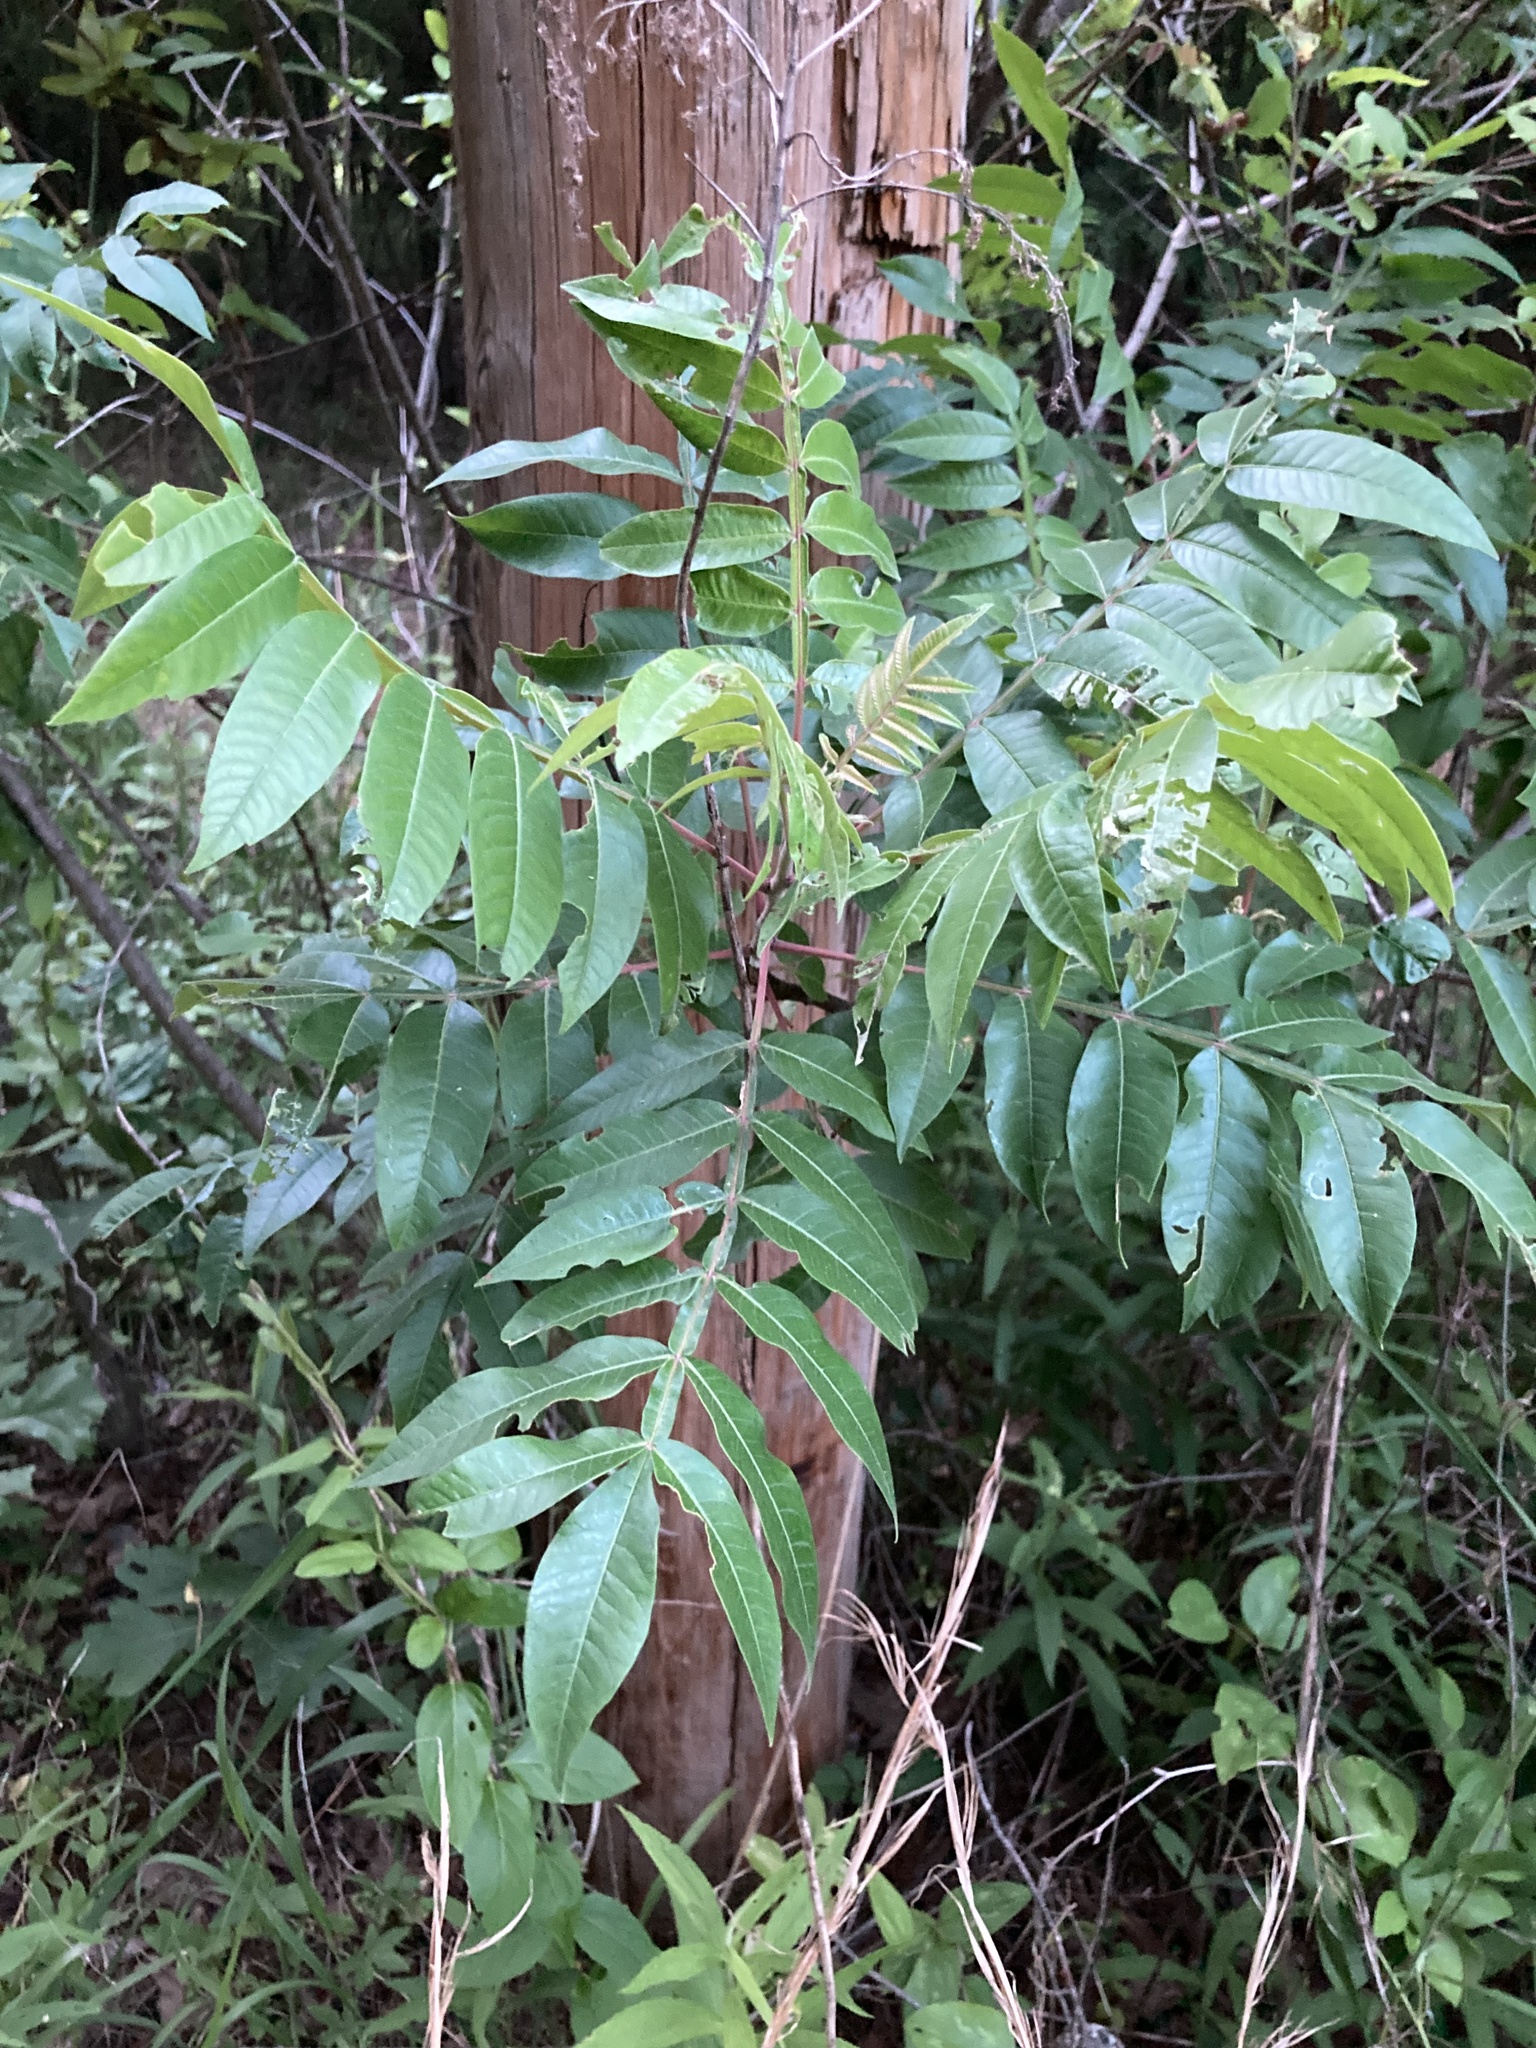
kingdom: Plantae
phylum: Tracheophyta
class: Magnoliopsida
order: Sapindales
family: Anacardiaceae
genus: Rhus
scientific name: Rhus copallina
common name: Shining sumac
